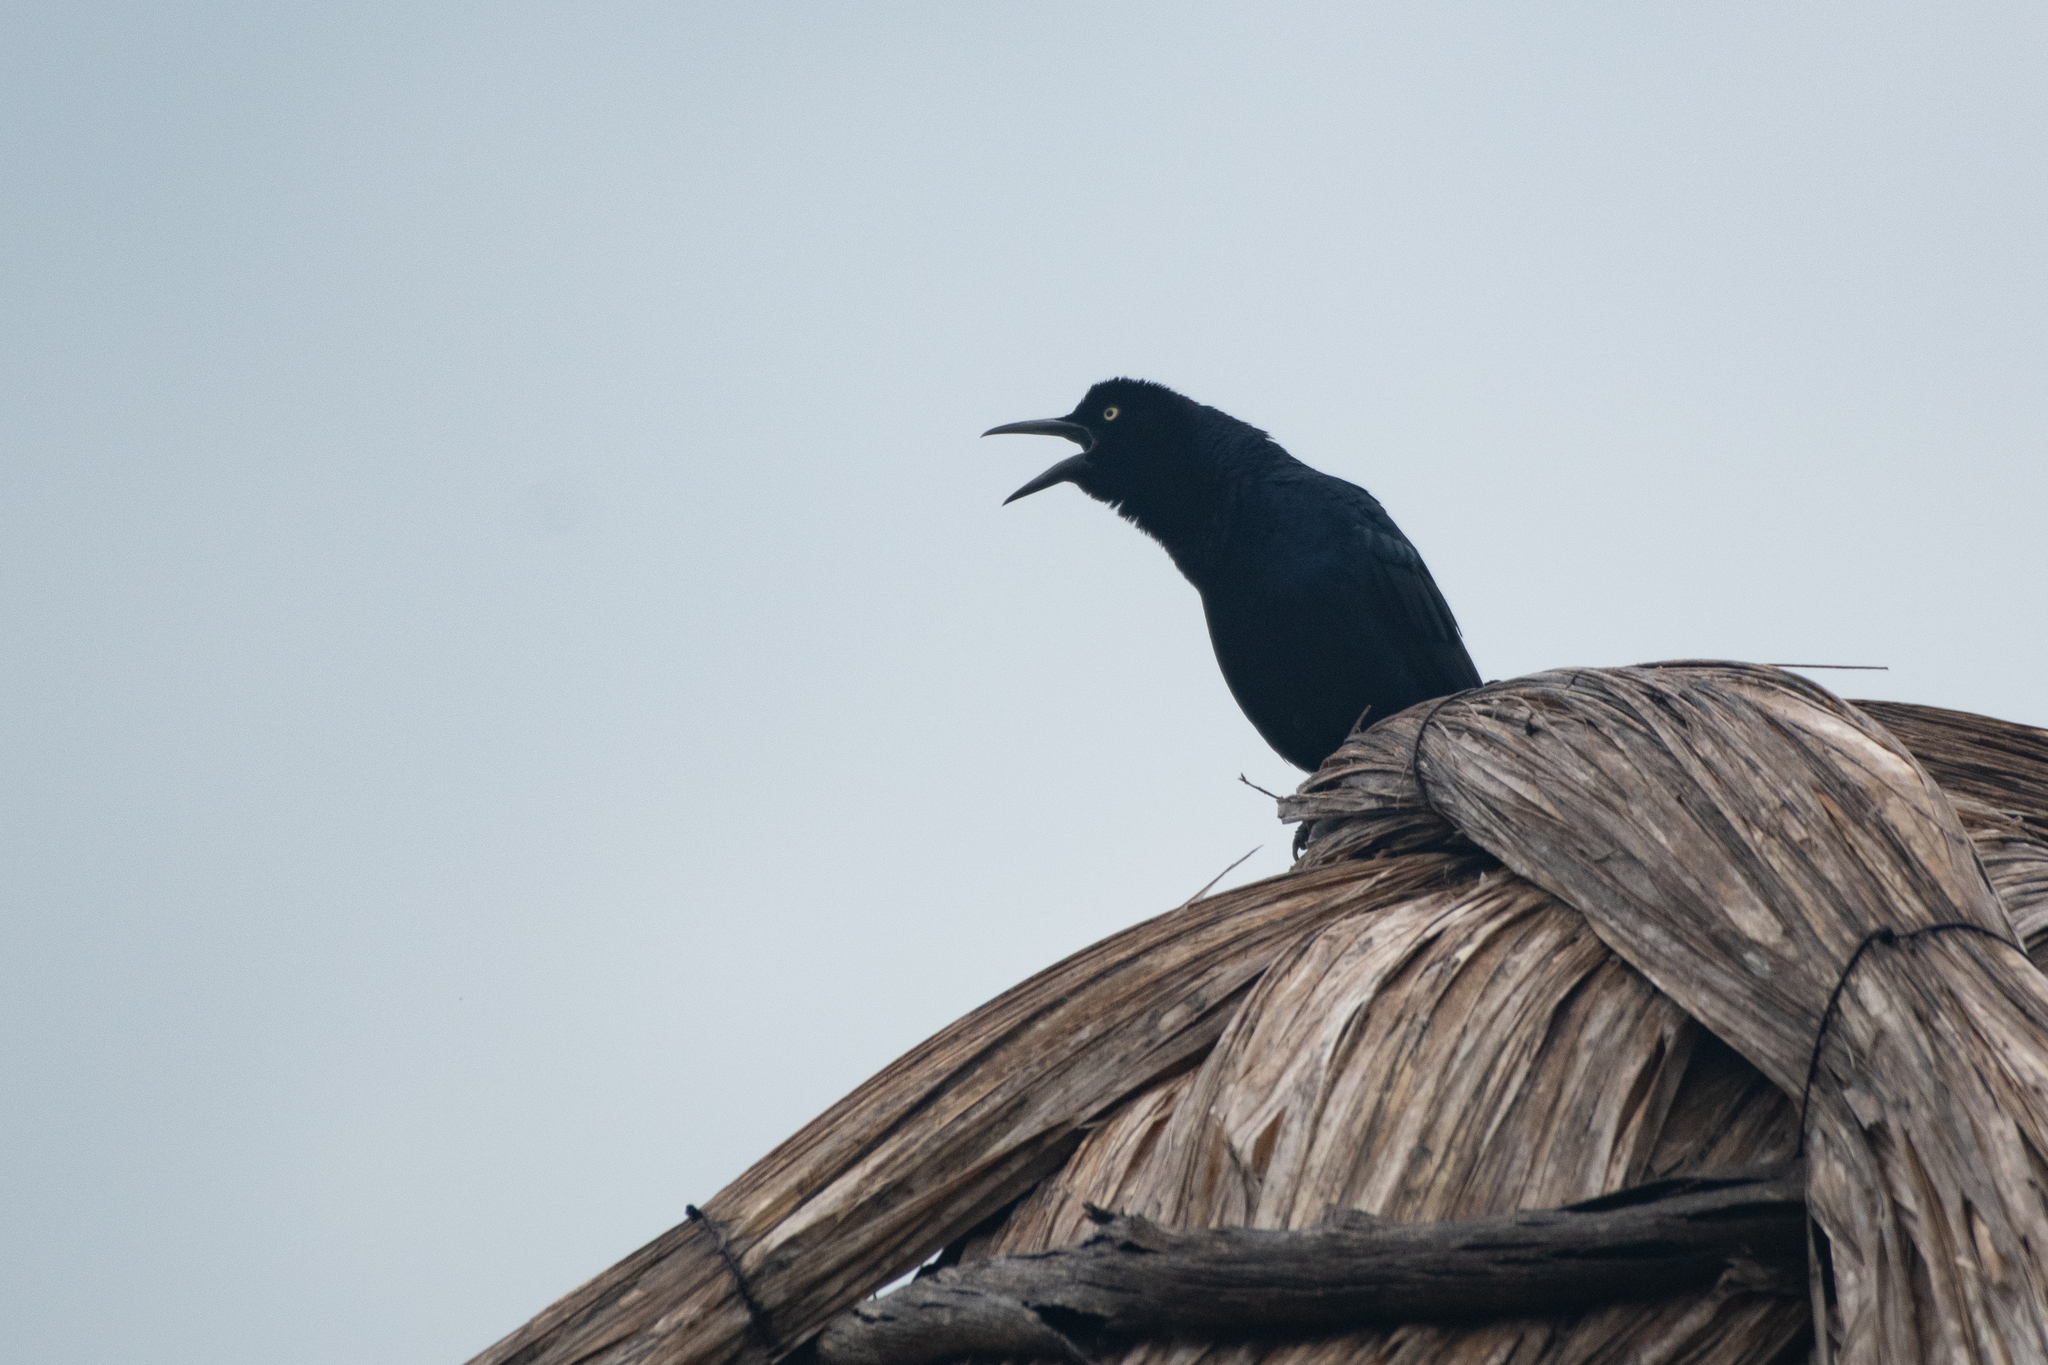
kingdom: Animalia
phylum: Chordata
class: Aves
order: Passeriformes
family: Icteridae
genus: Quiscalus
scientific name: Quiscalus mexicanus
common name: Great-tailed grackle
